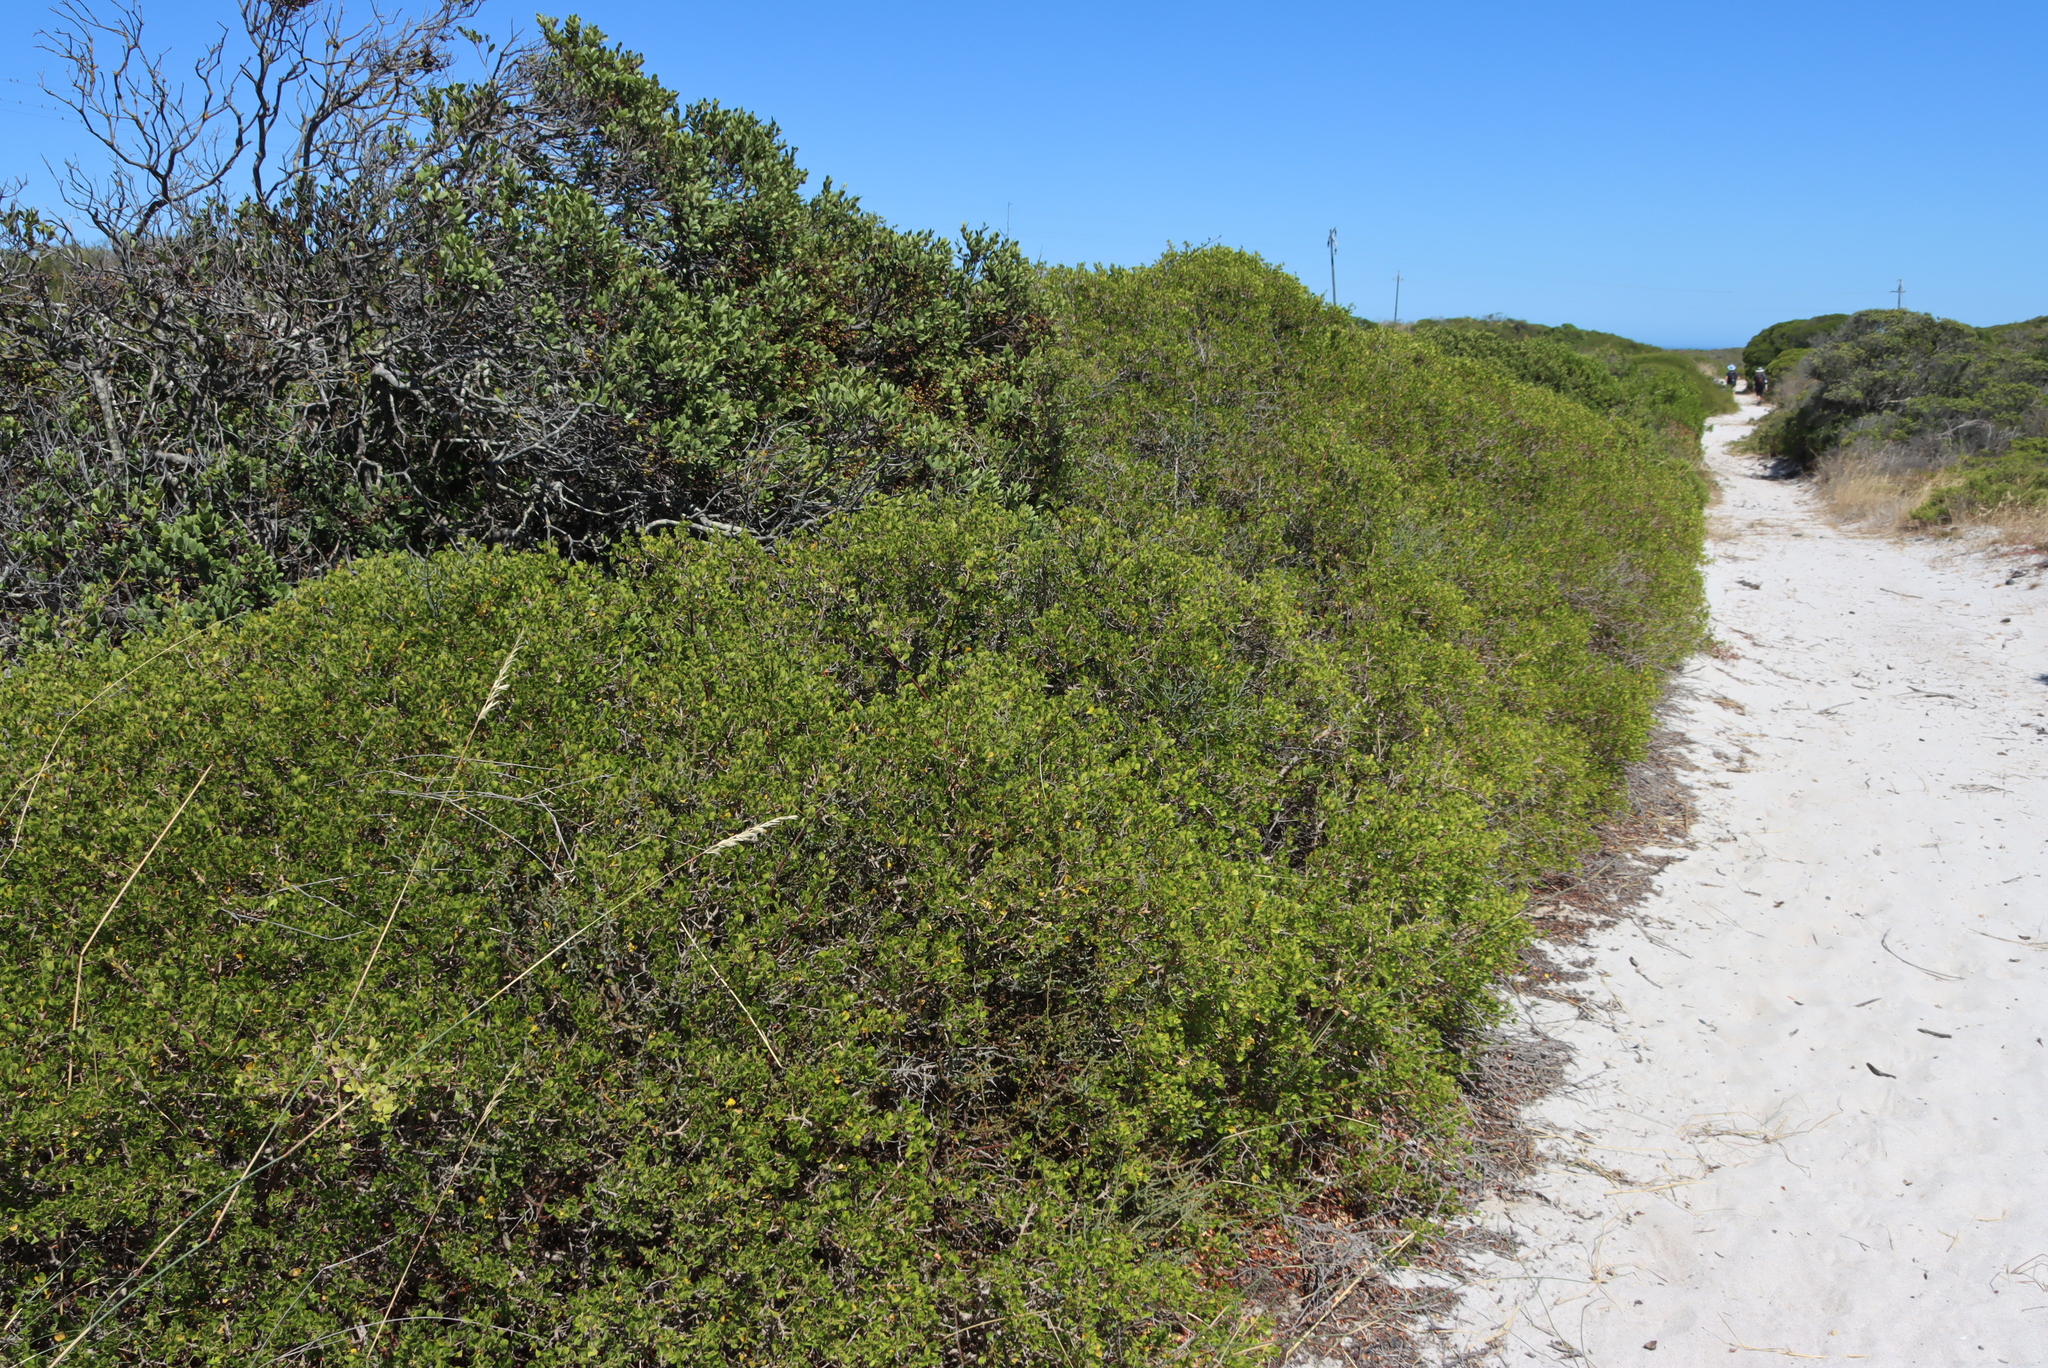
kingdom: Plantae
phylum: Tracheophyta
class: Magnoliopsida
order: Sapindales
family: Anacardiaceae
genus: Searsia
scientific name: Searsia glauca
